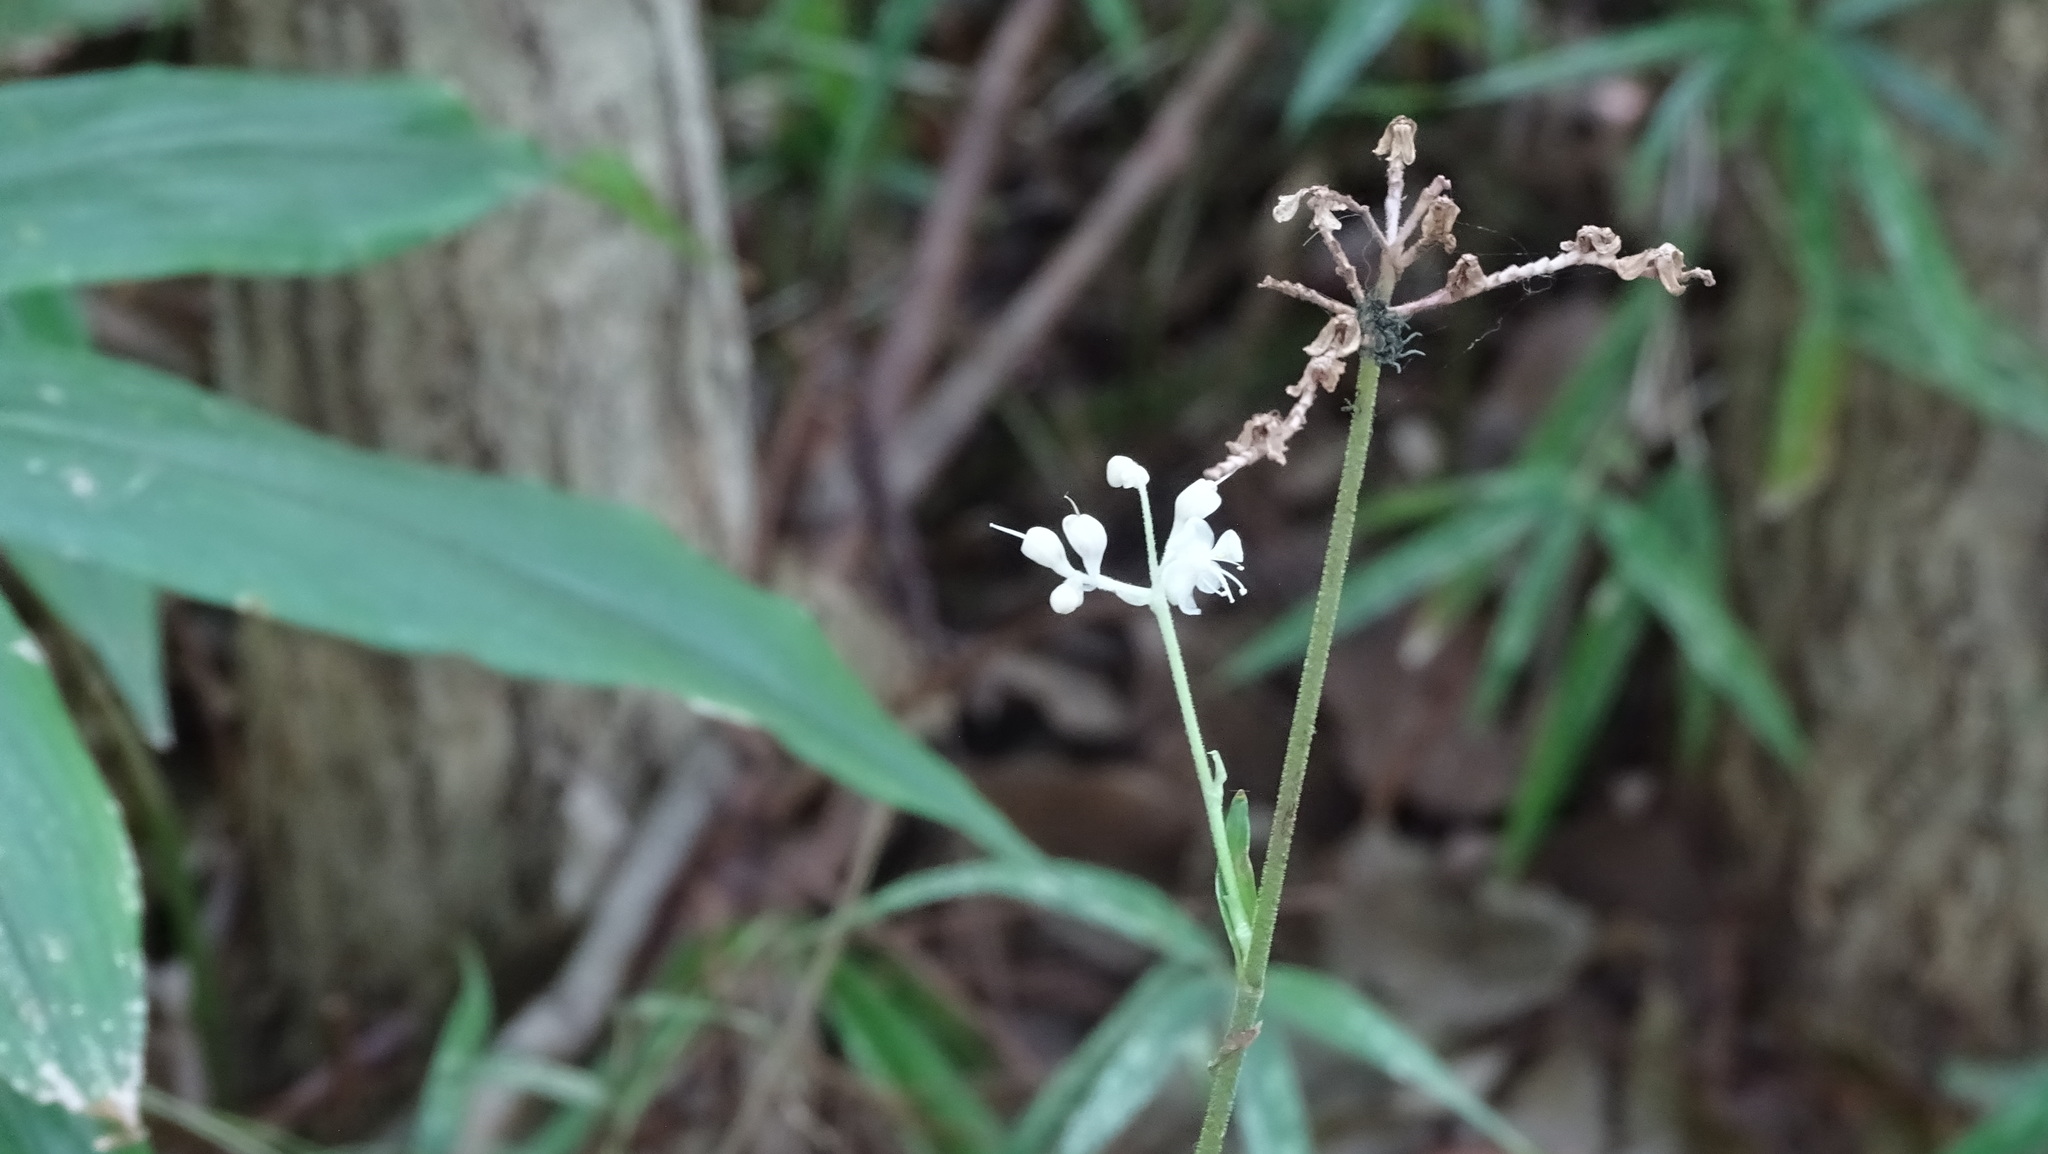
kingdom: Plantae
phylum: Tracheophyta
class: Liliopsida
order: Commelinales
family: Commelinaceae
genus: Pollia
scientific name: Pollia japonica
